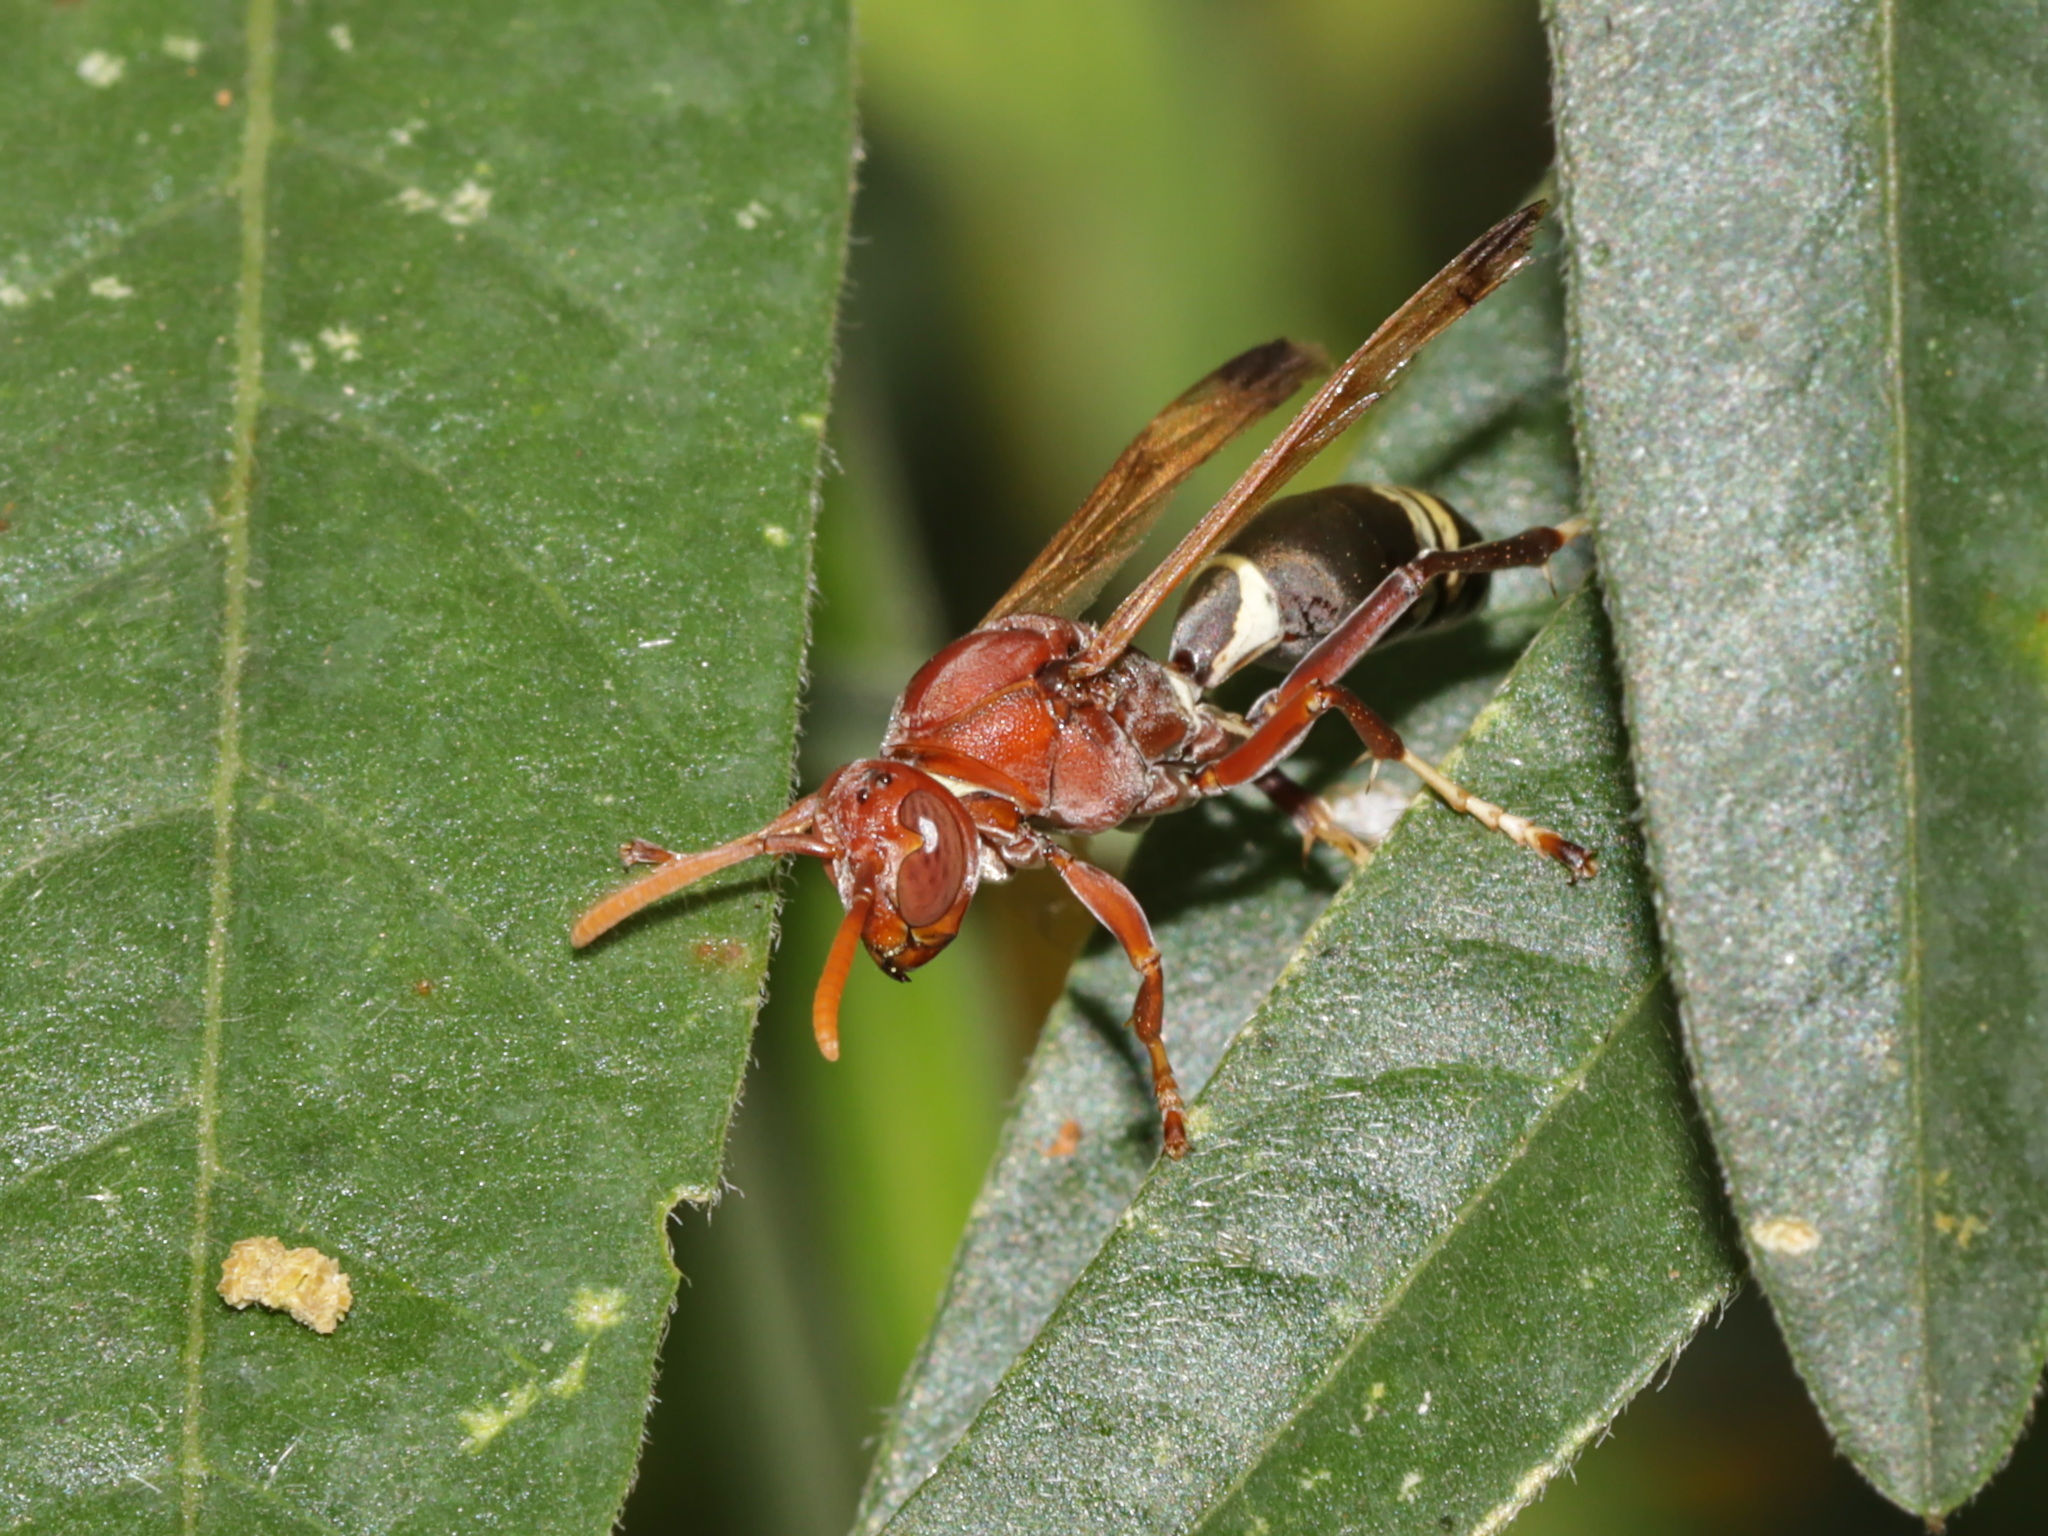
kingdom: Animalia
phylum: Arthropoda
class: Insecta
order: Hymenoptera
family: Eumenidae
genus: Polistes
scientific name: Polistes brunus
